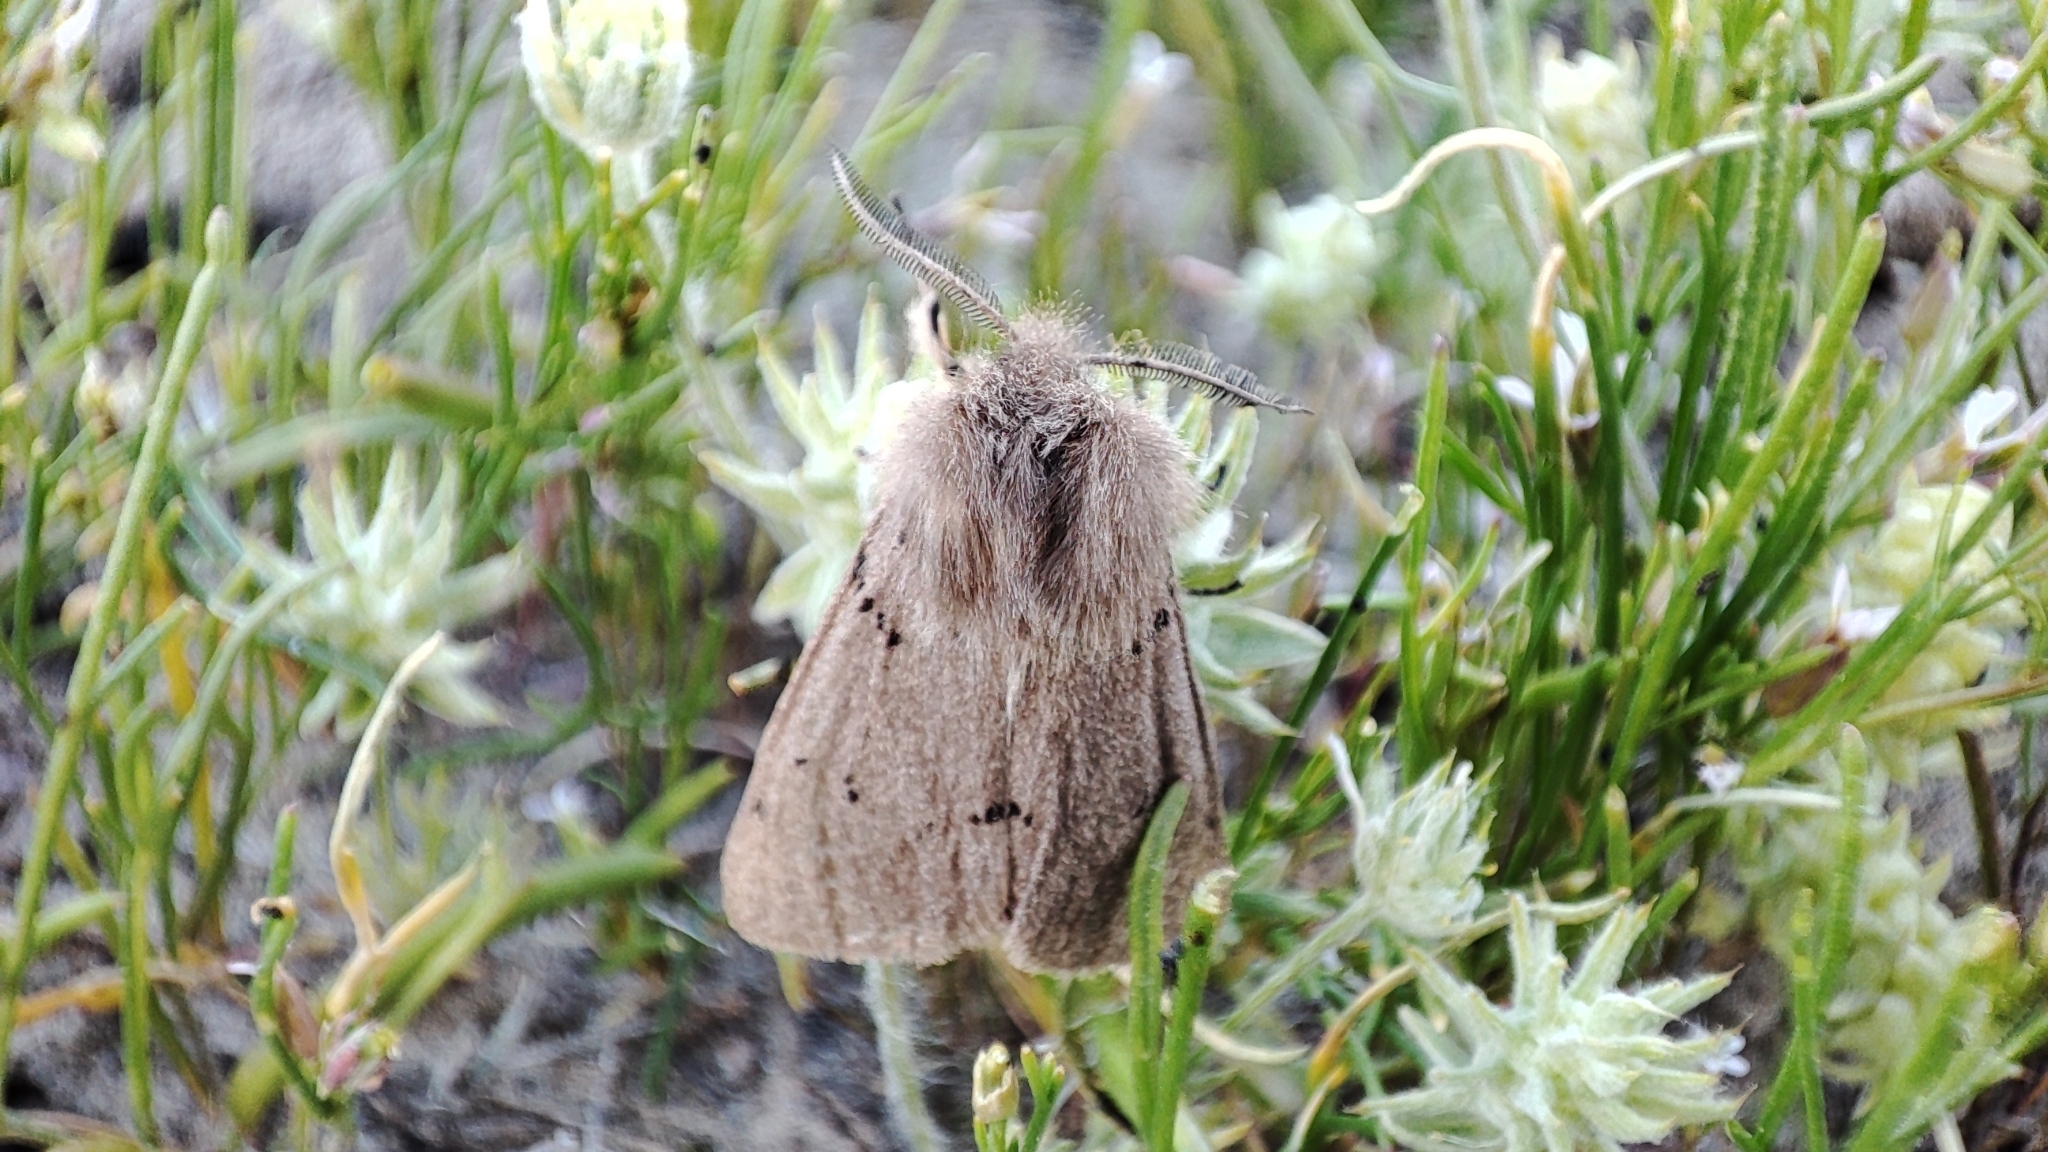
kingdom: Animalia
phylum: Arthropoda
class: Insecta
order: Lepidoptera
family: Erebidae
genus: Eudiaphora
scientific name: Eudiaphora
